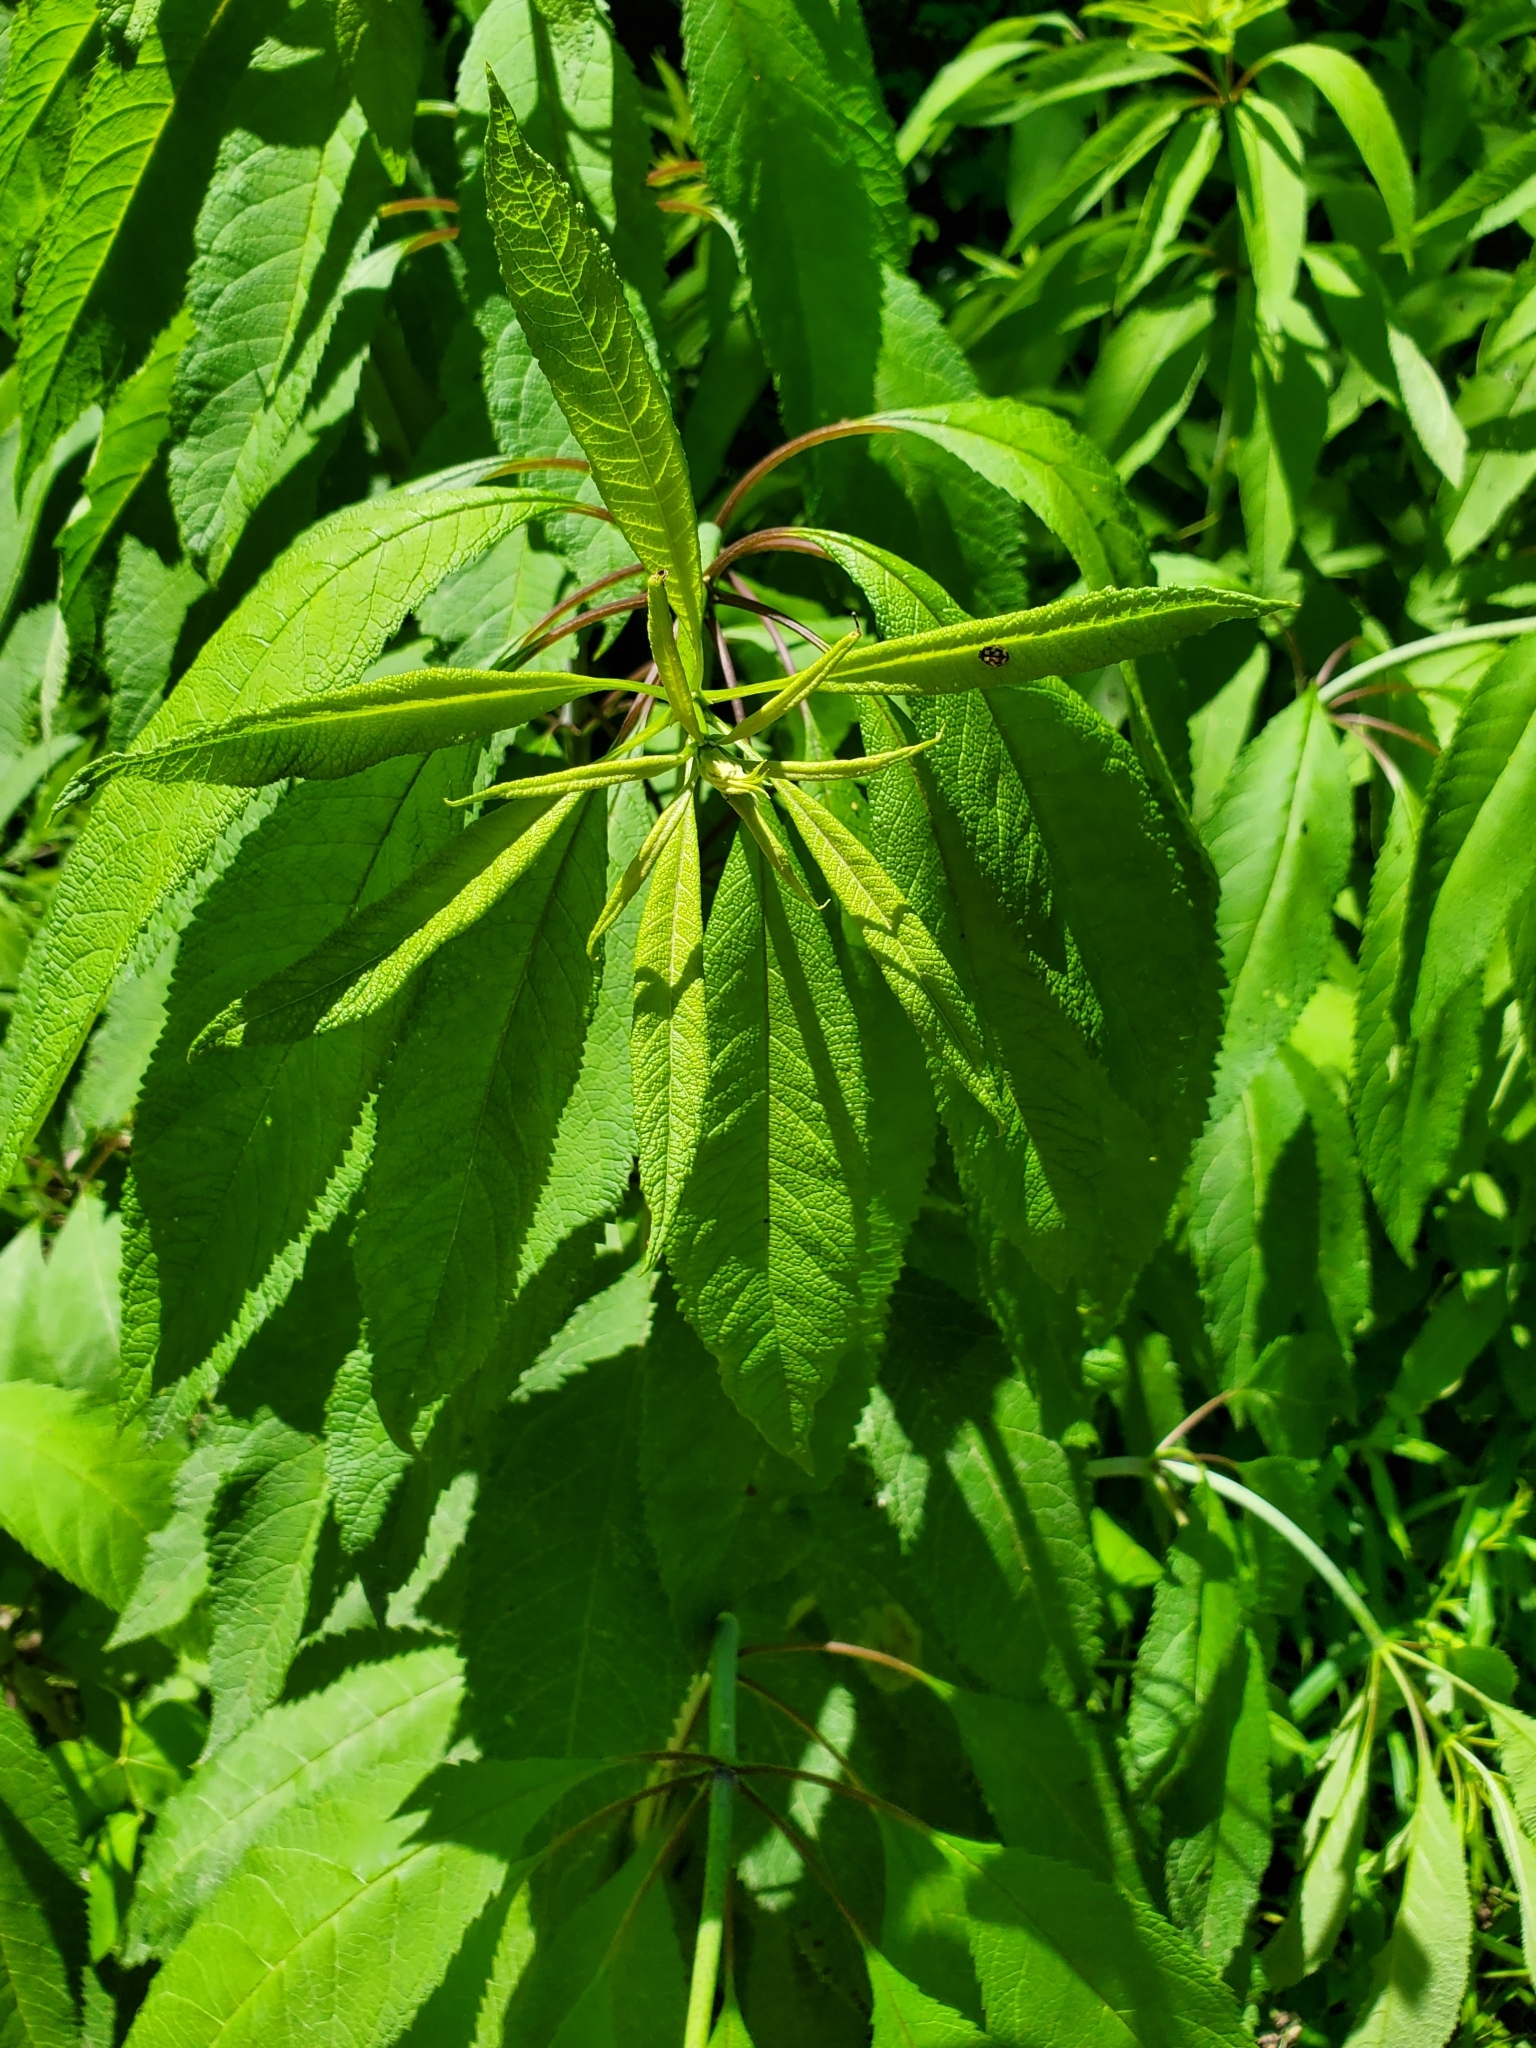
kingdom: Plantae
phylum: Tracheophyta
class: Magnoliopsida
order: Asterales
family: Asteraceae
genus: Eutrochium
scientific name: Eutrochium fistulosum
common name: Trumpetweed
